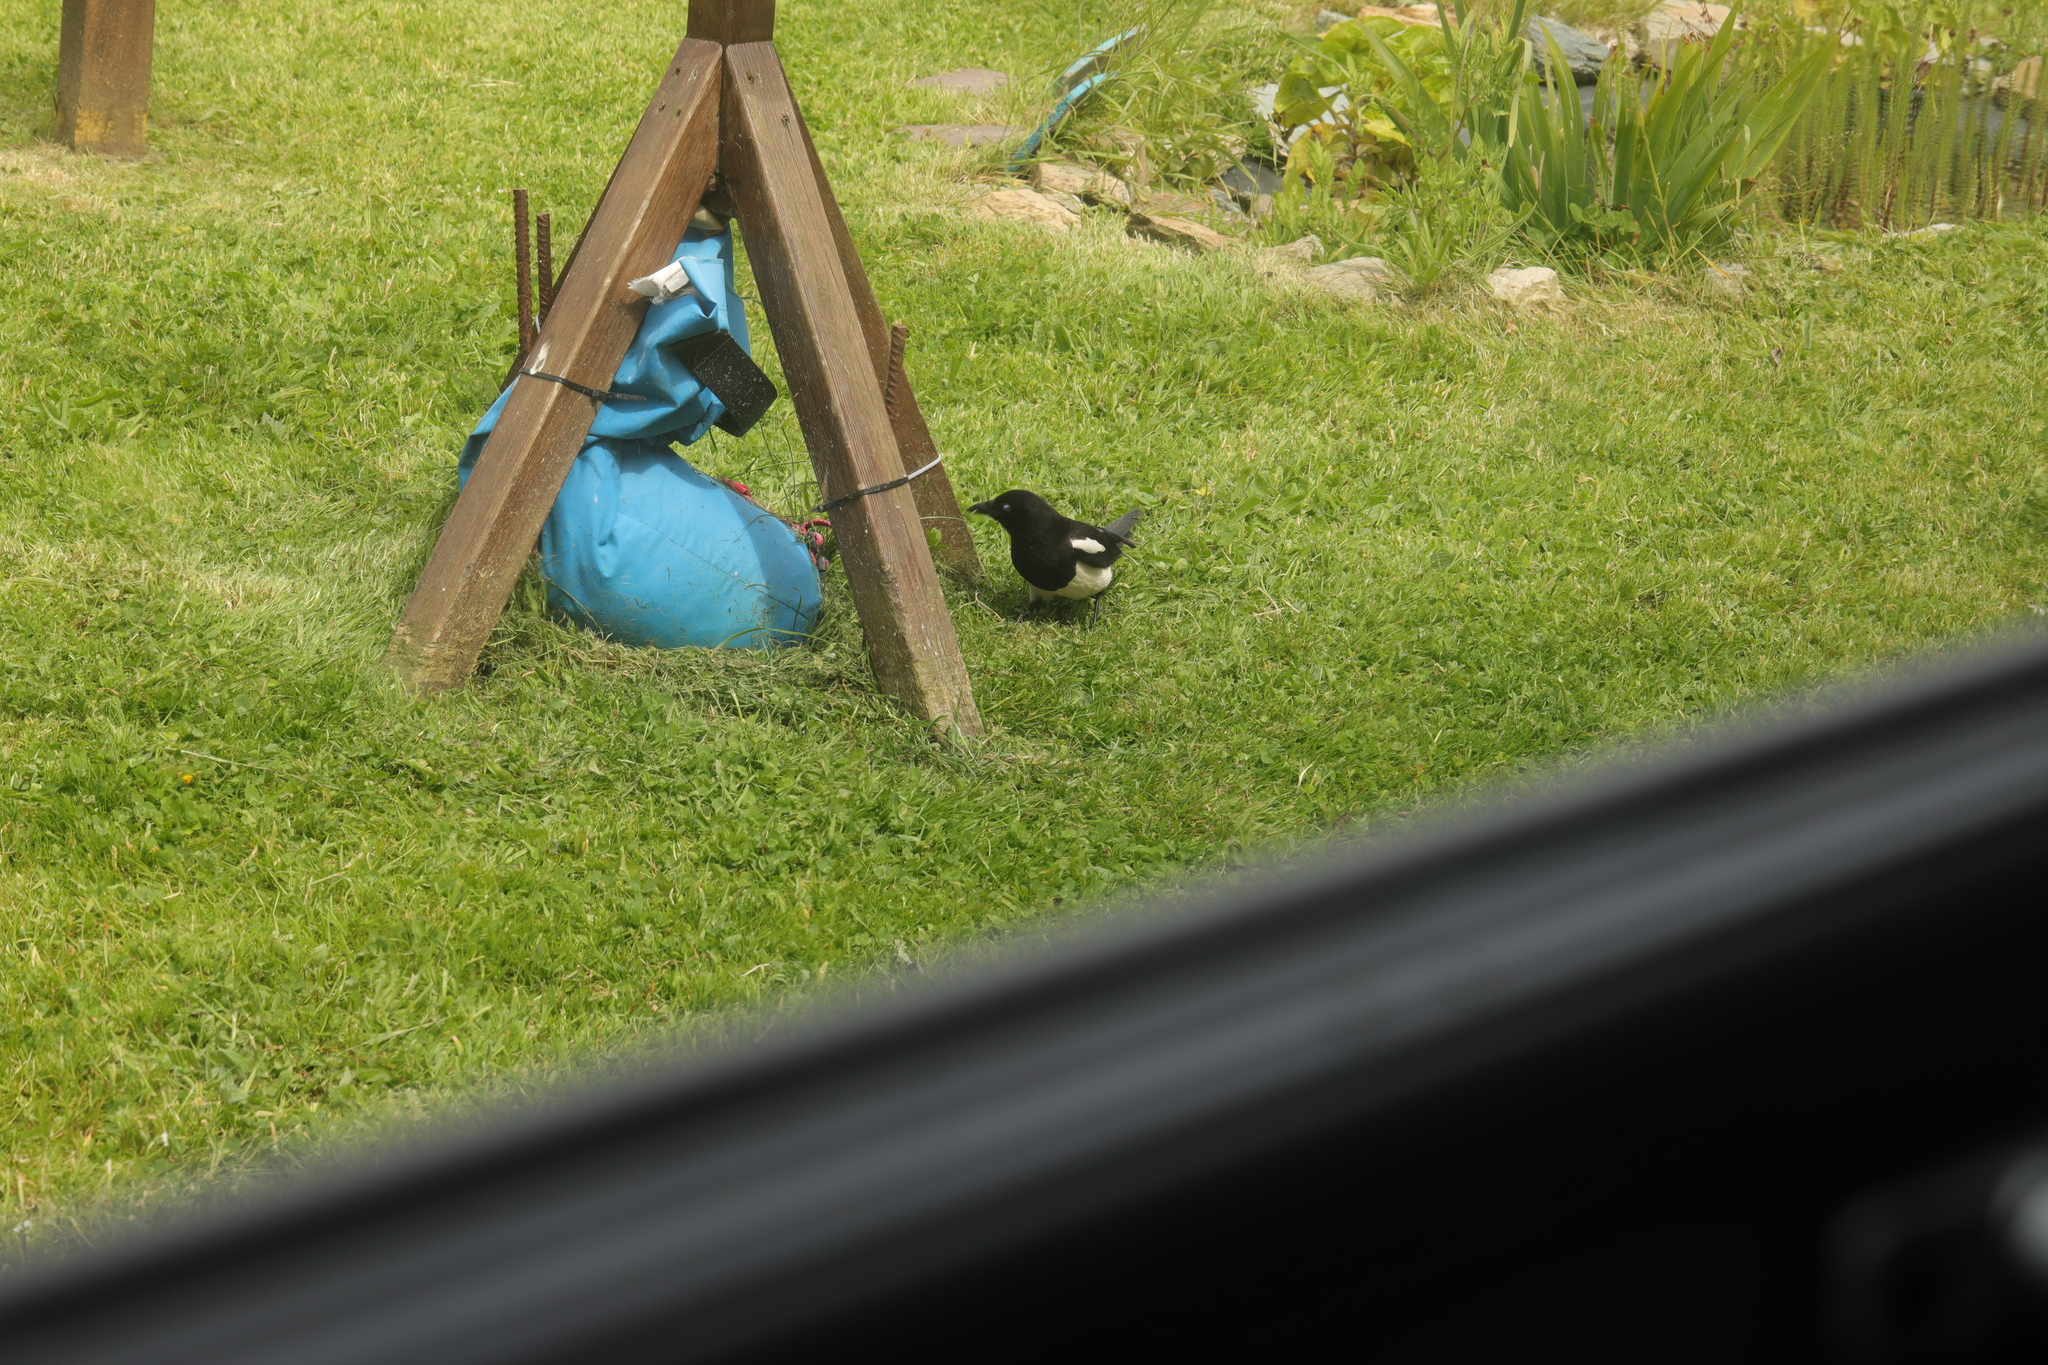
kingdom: Animalia
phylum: Chordata
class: Aves
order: Passeriformes
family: Corvidae
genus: Pica
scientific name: Pica pica
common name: Eurasian magpie
